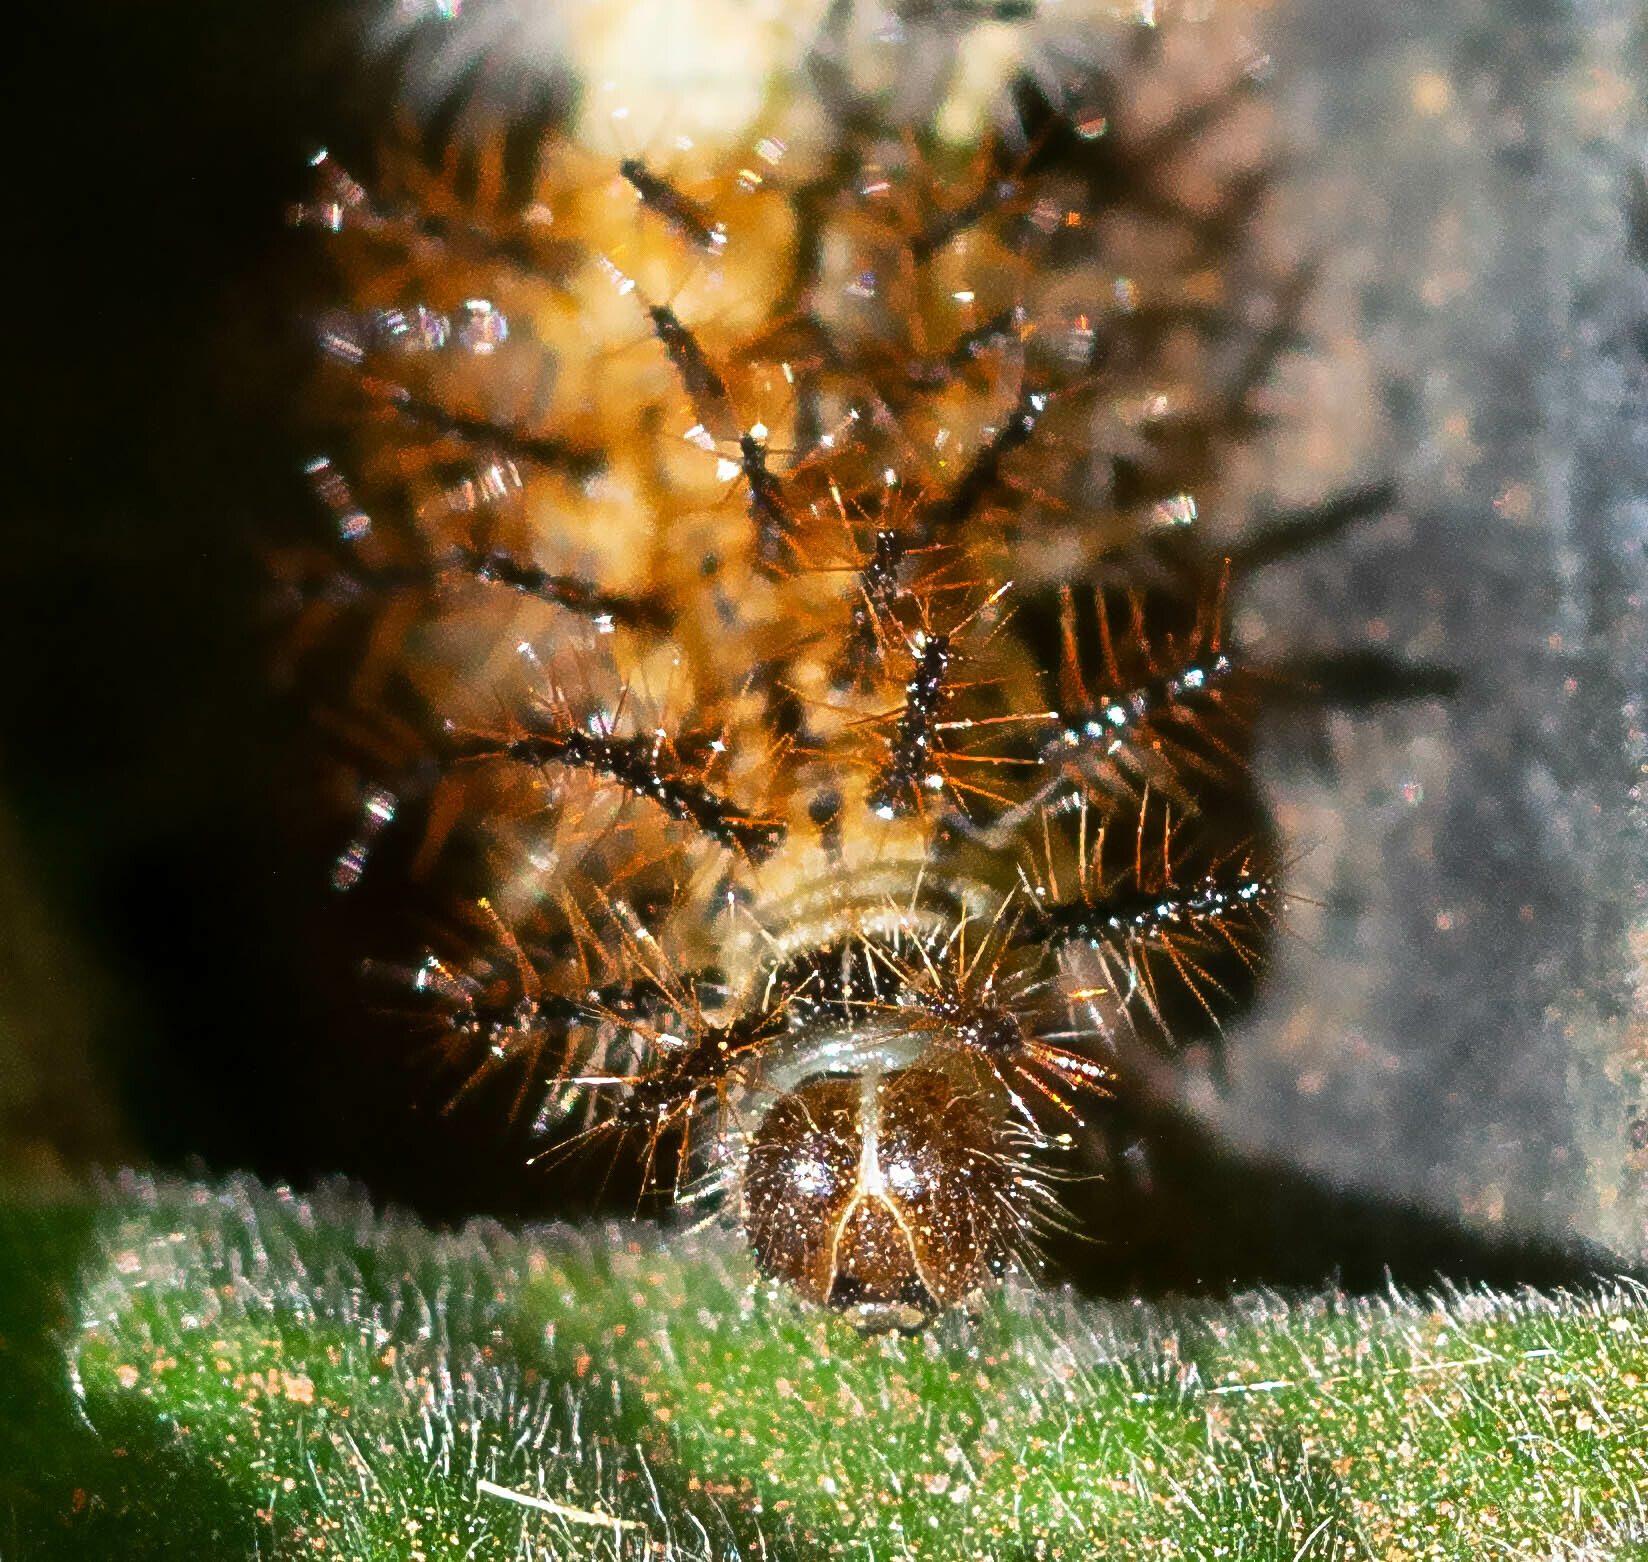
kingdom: Animalia
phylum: Arthropoda
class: Insecta
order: Lepidoptera
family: Nymphalidae
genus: Actinote
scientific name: Actinote
